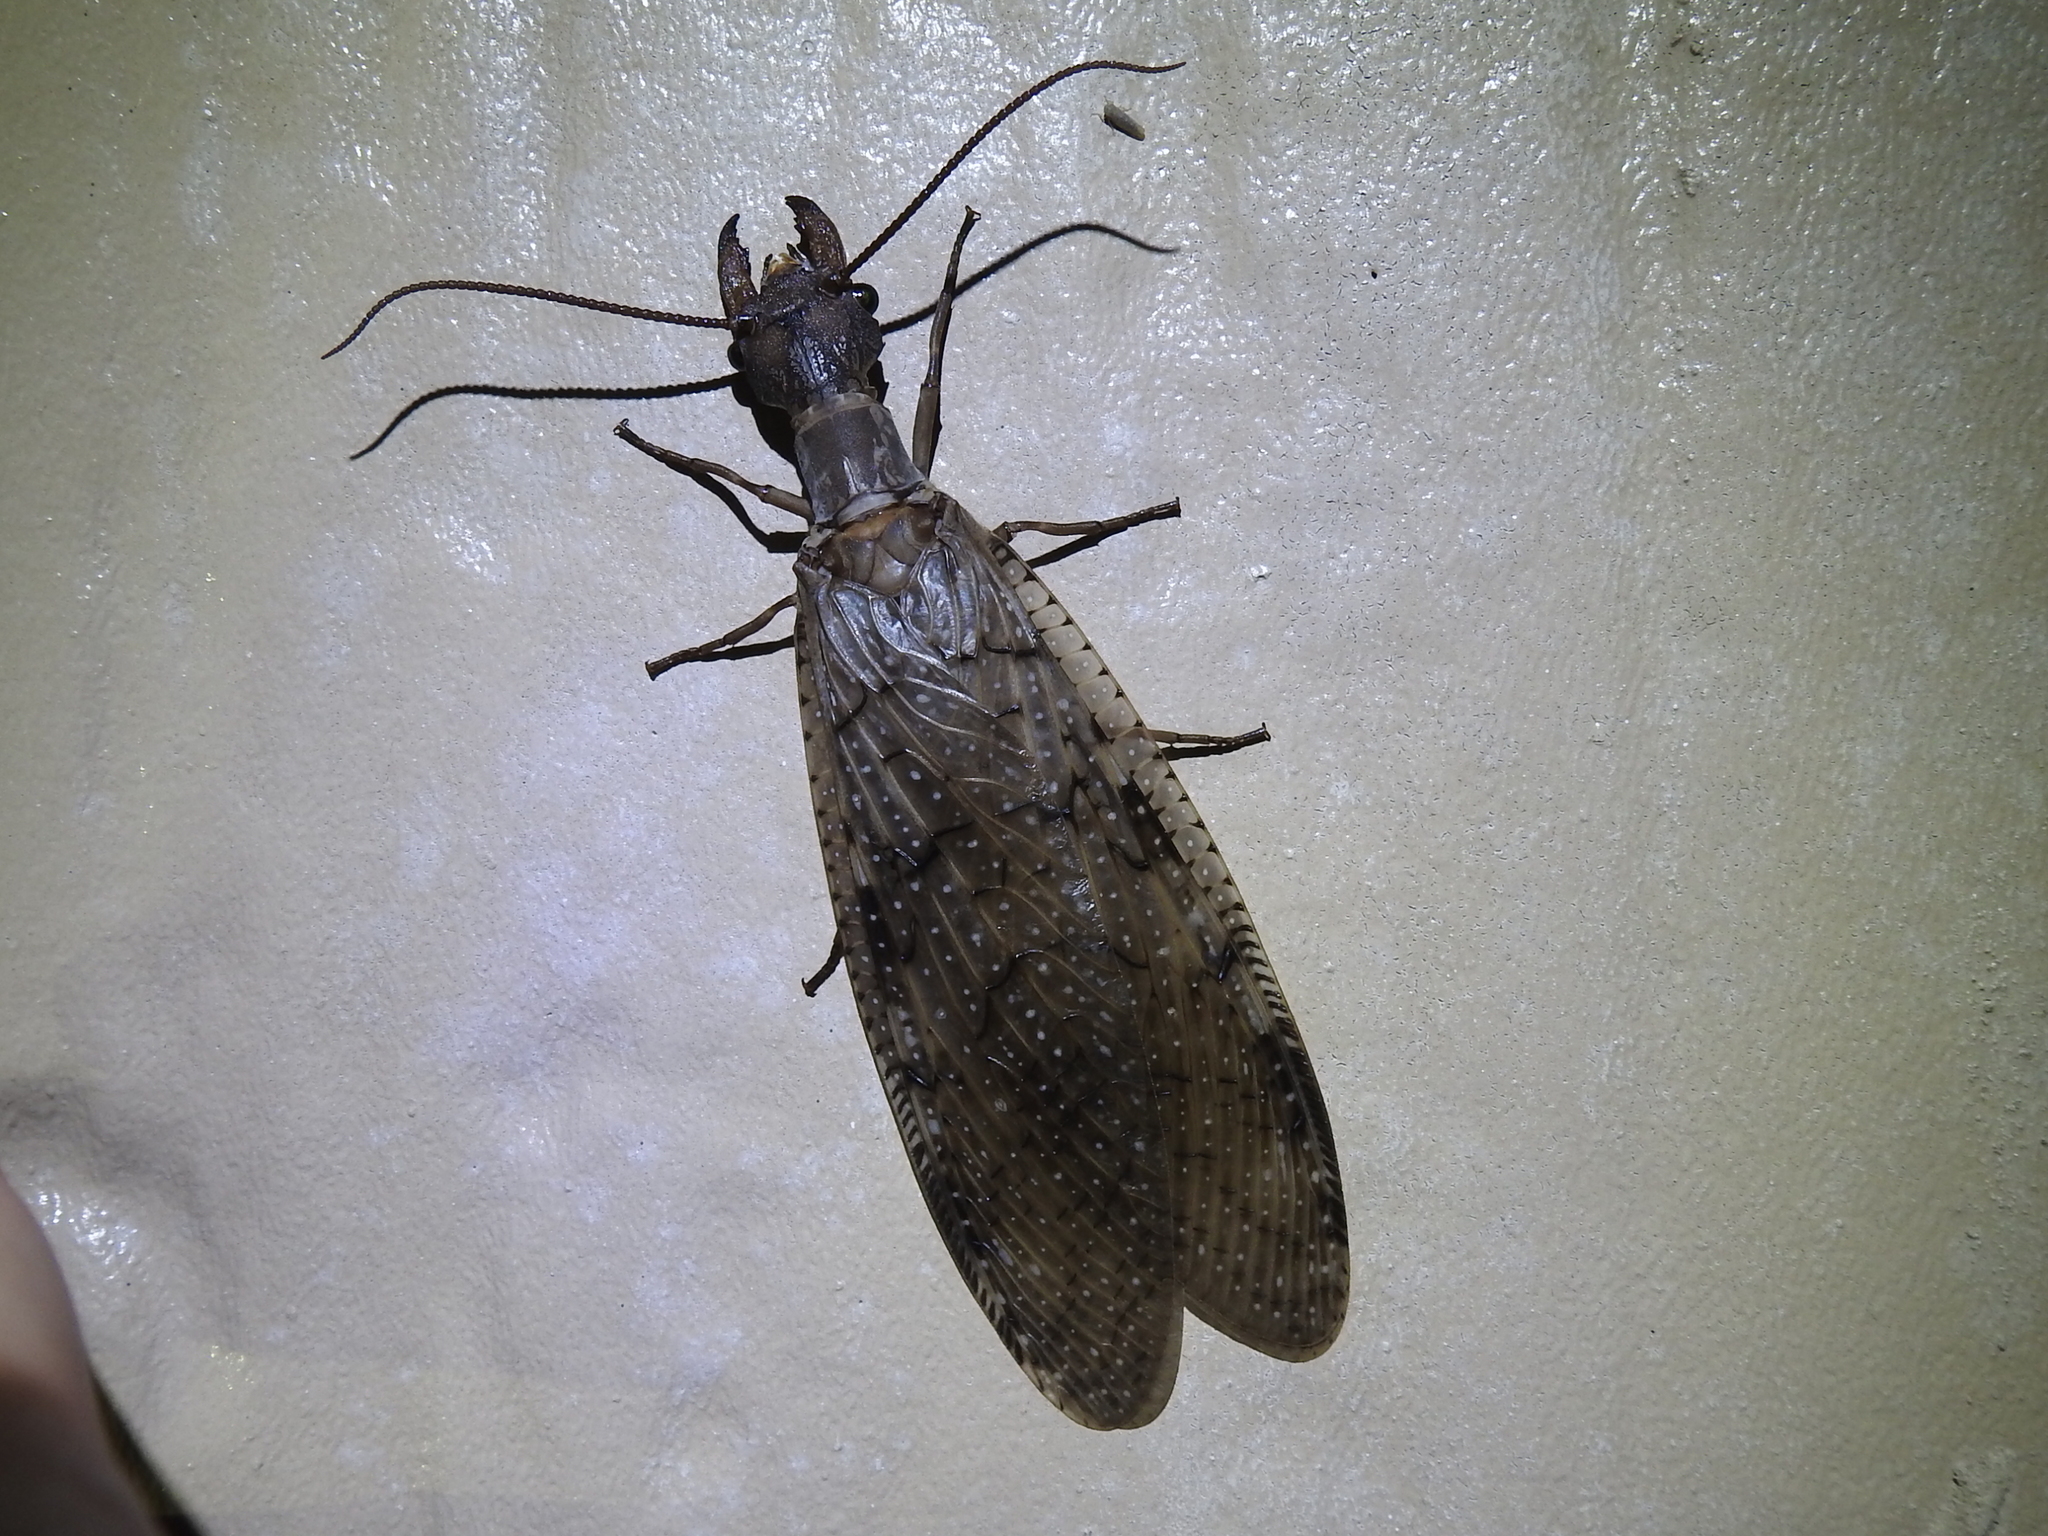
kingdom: Animalia
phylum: Arthropoda
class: Insecta
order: Megaloptera
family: Corydalidae
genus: Corydalus
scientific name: Corydalus cornutus
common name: Dobsonfly
